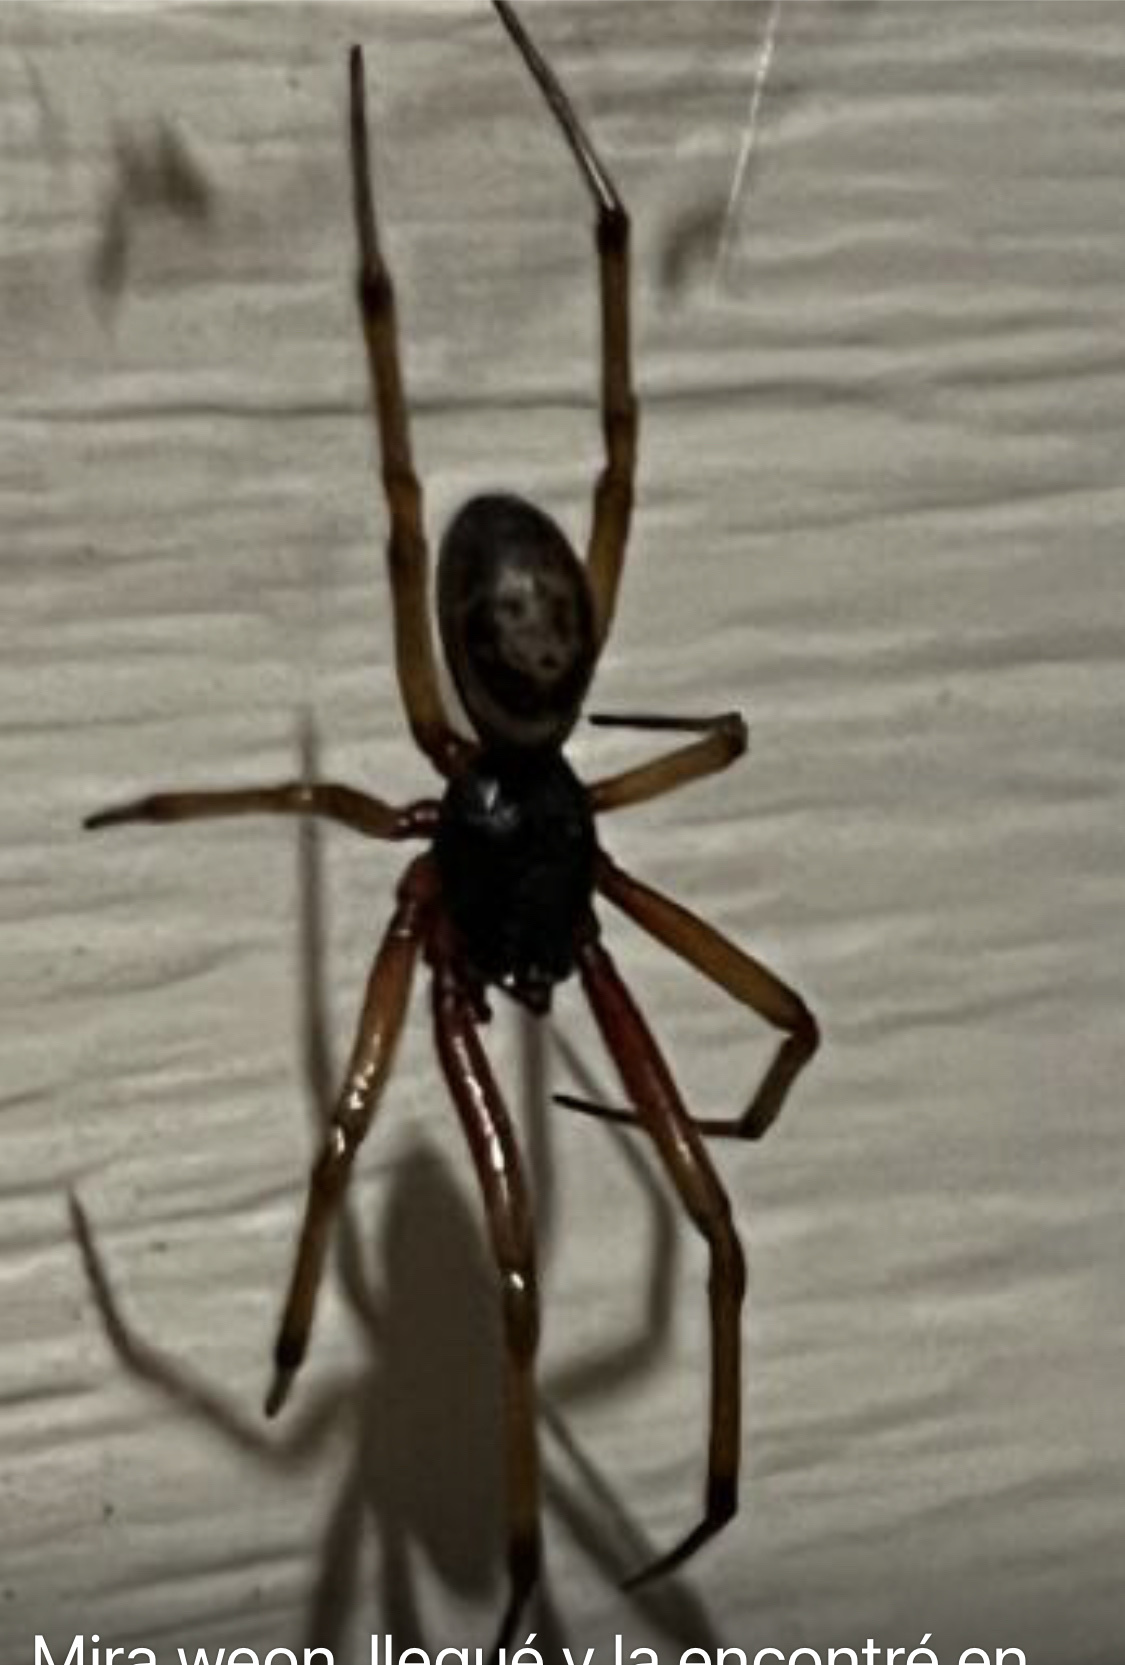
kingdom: Animalia
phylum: Arthropoda
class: Arachnida
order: Araneae
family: Theridiidae
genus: Steatoda
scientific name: Steatoda nobilis
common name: Cobweb weaver
